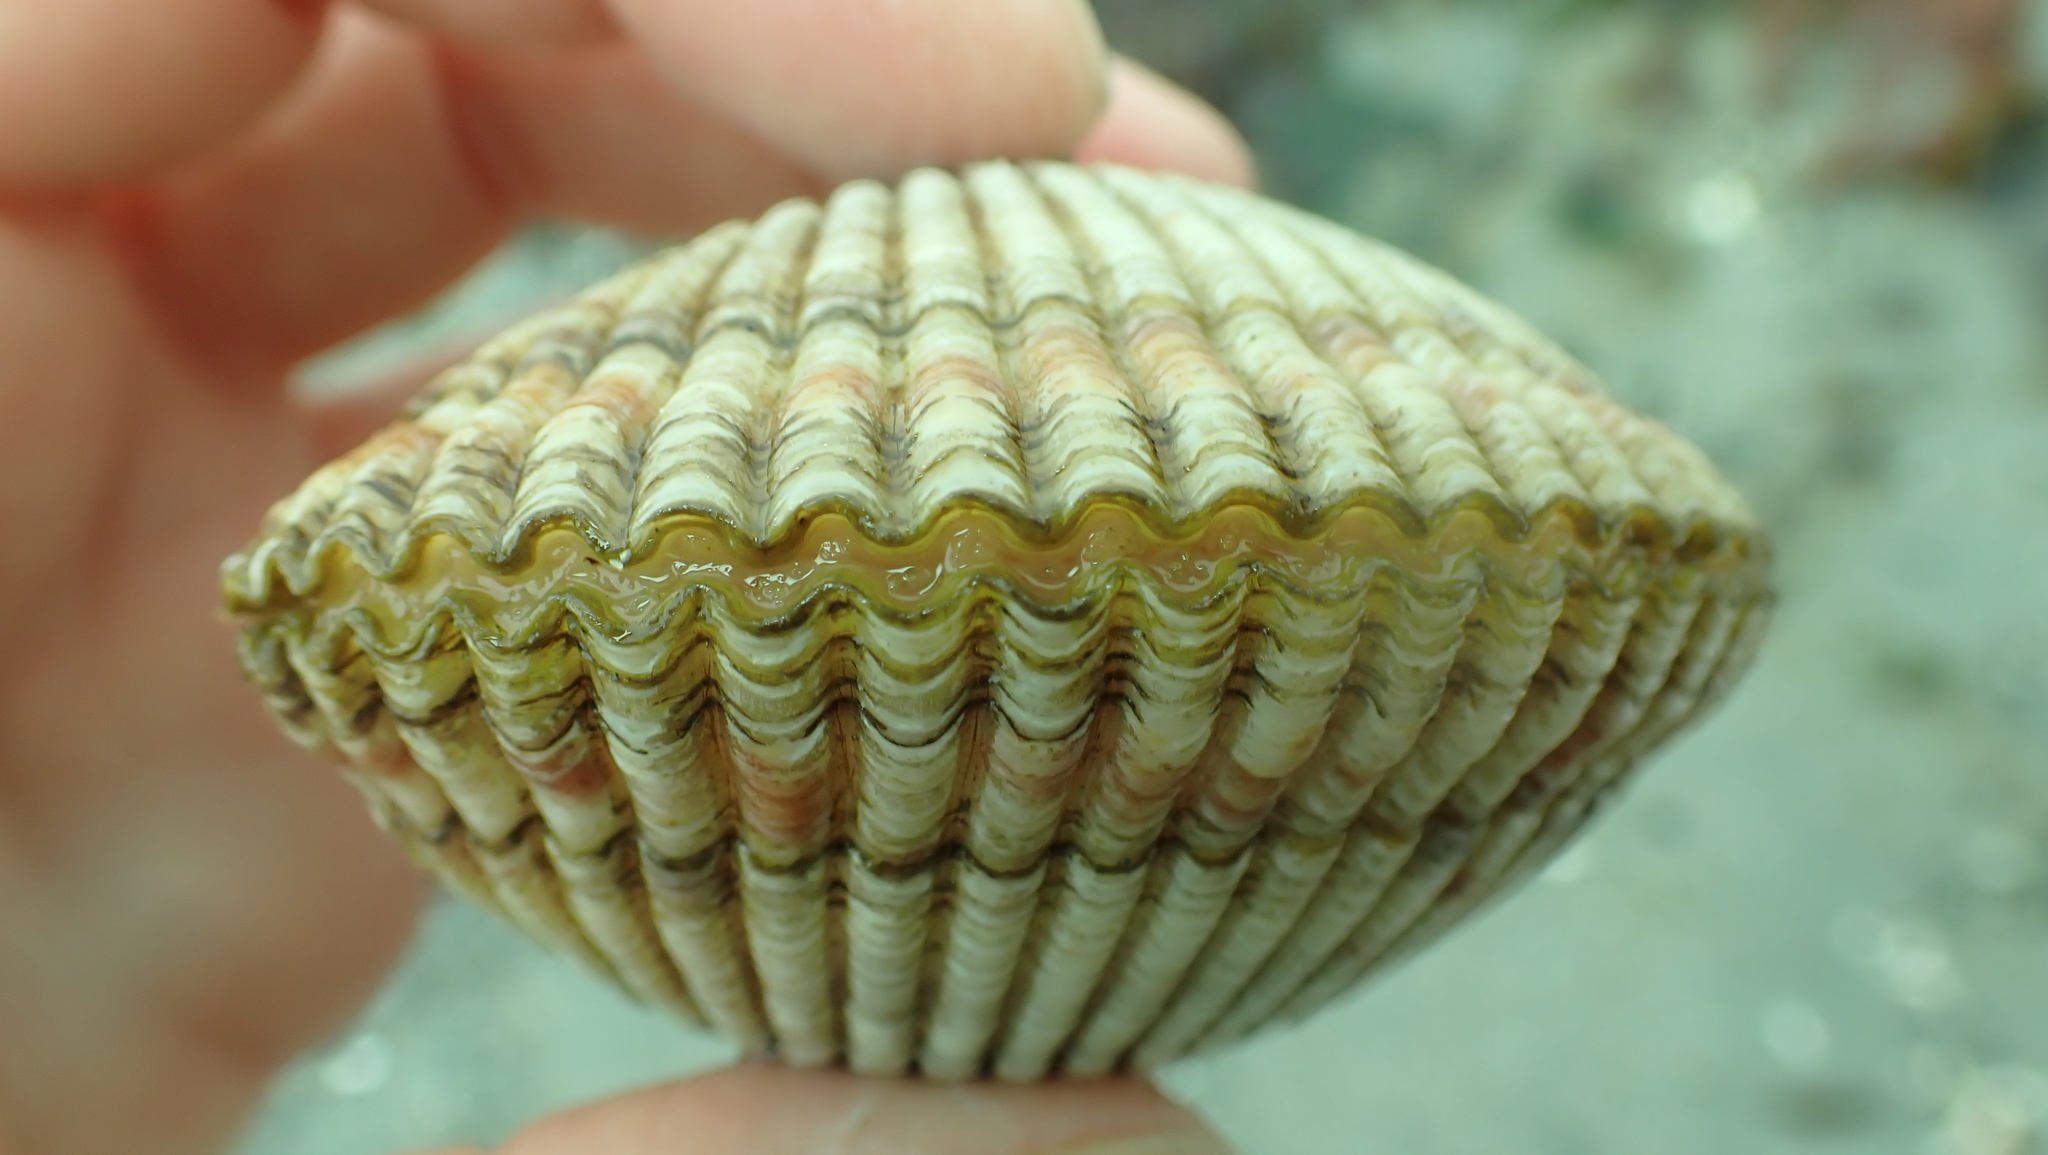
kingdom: Animalia
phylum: Mollusca
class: Bivalvia
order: Cardiida
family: Cardiidae
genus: Clinocardium
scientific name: Clinocardium nuttallii
